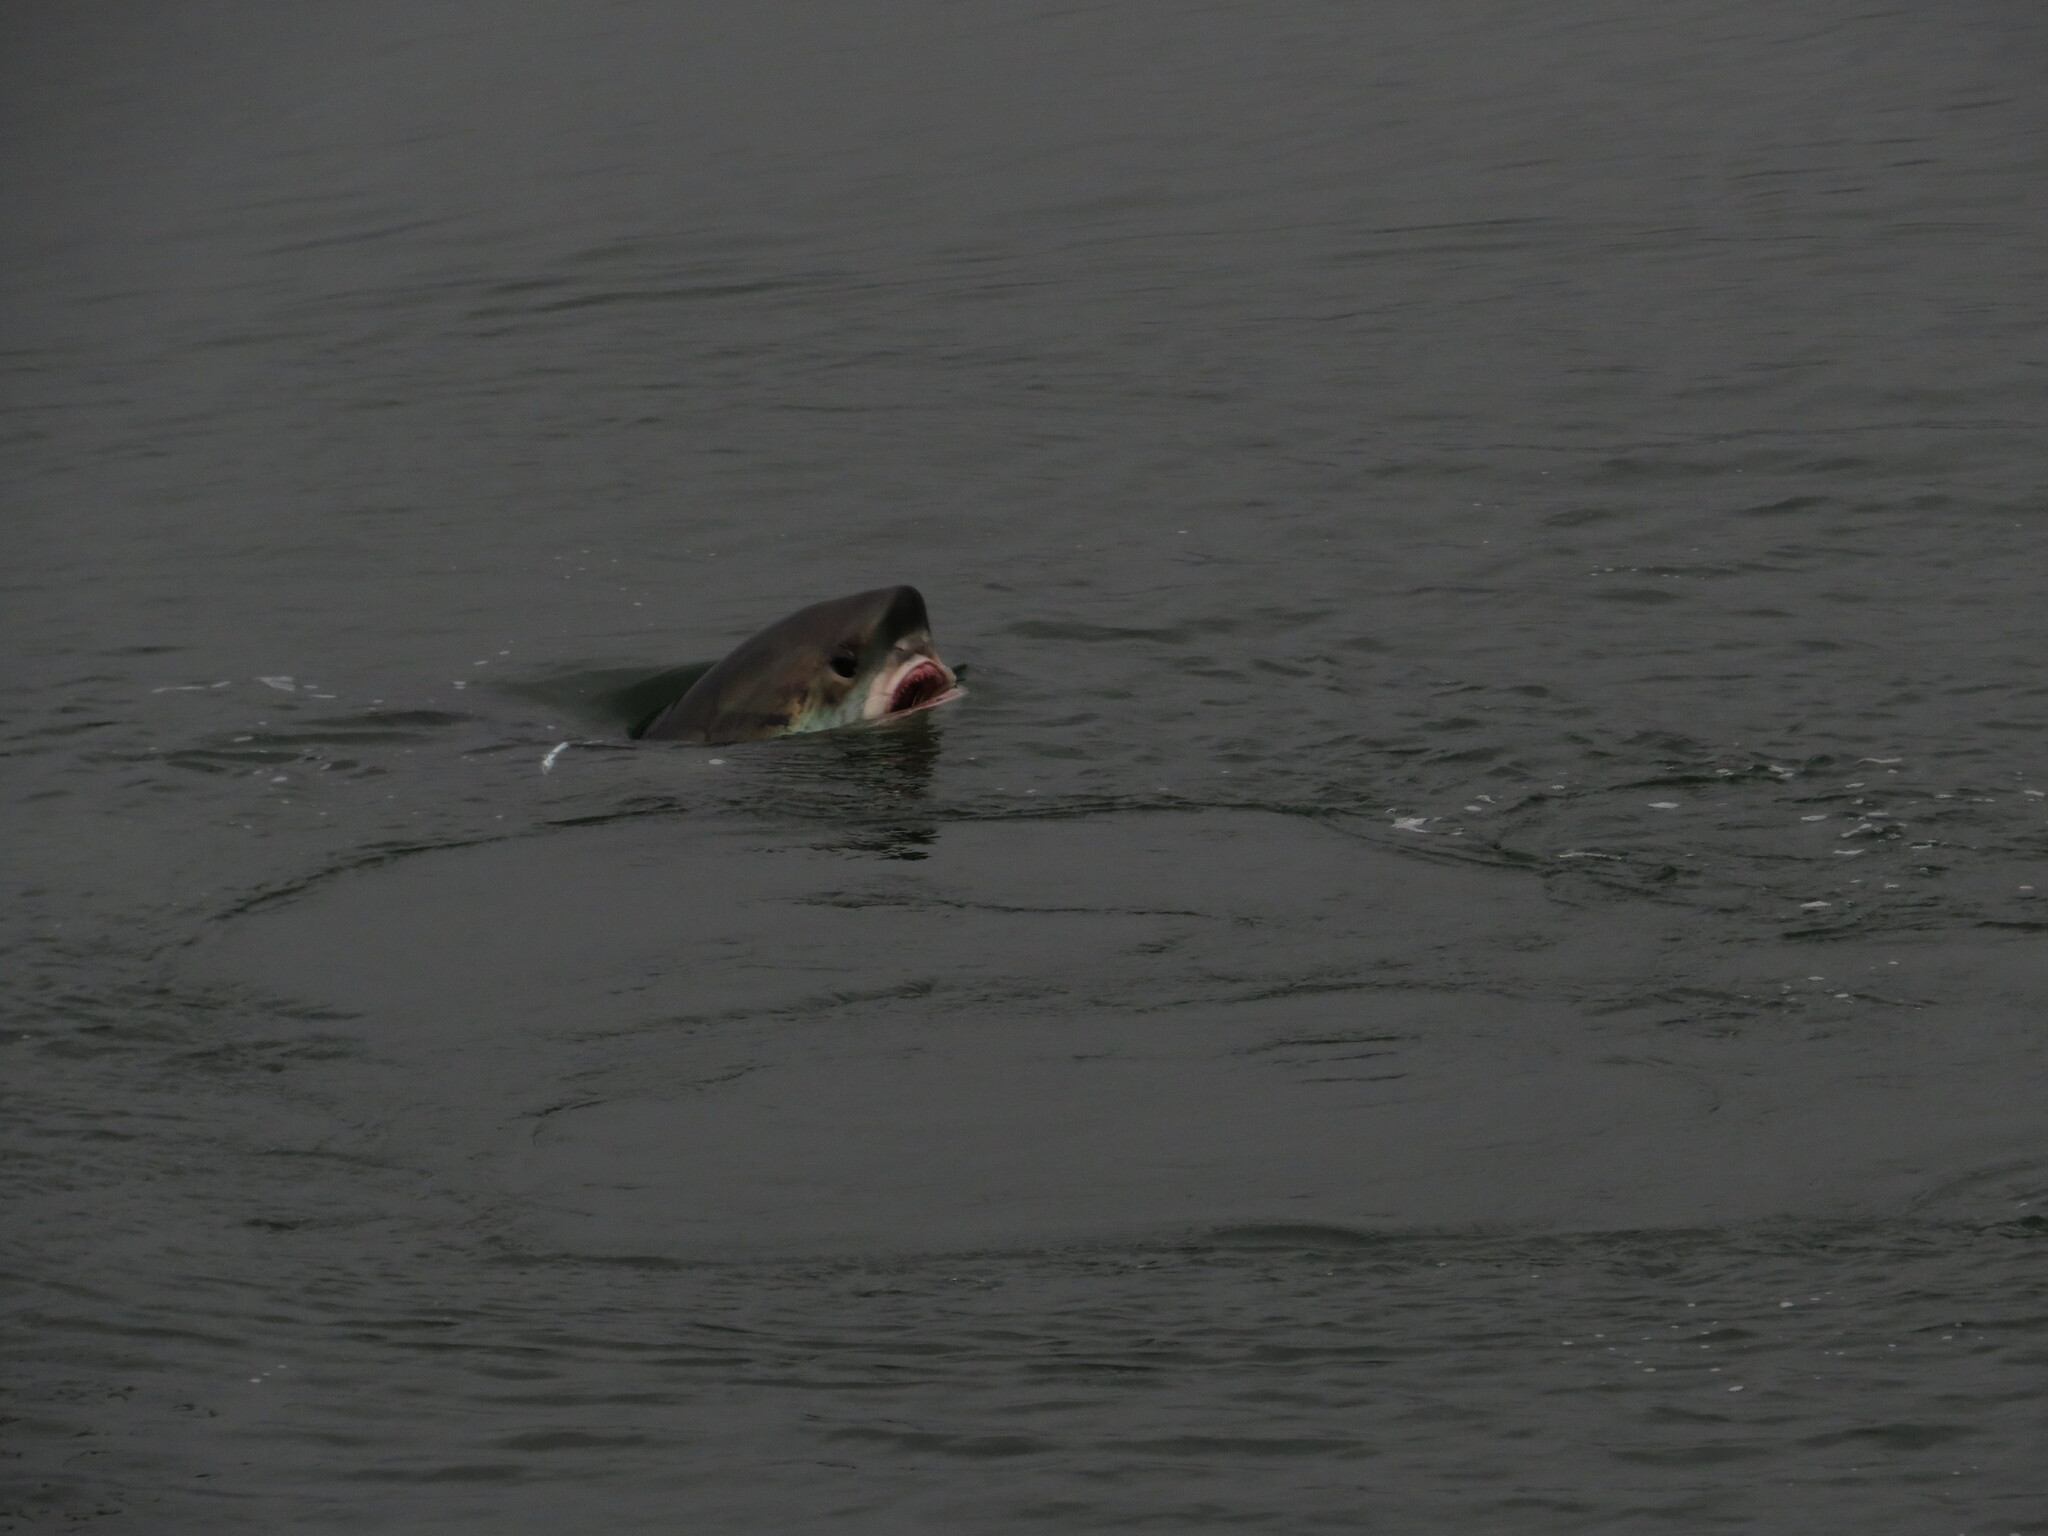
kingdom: Animalia
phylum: Chordata
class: Elasmobranchii
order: Lamniformes
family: Alopiidae
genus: Alopias
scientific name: Alopias vulpinus
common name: Thresher shark
